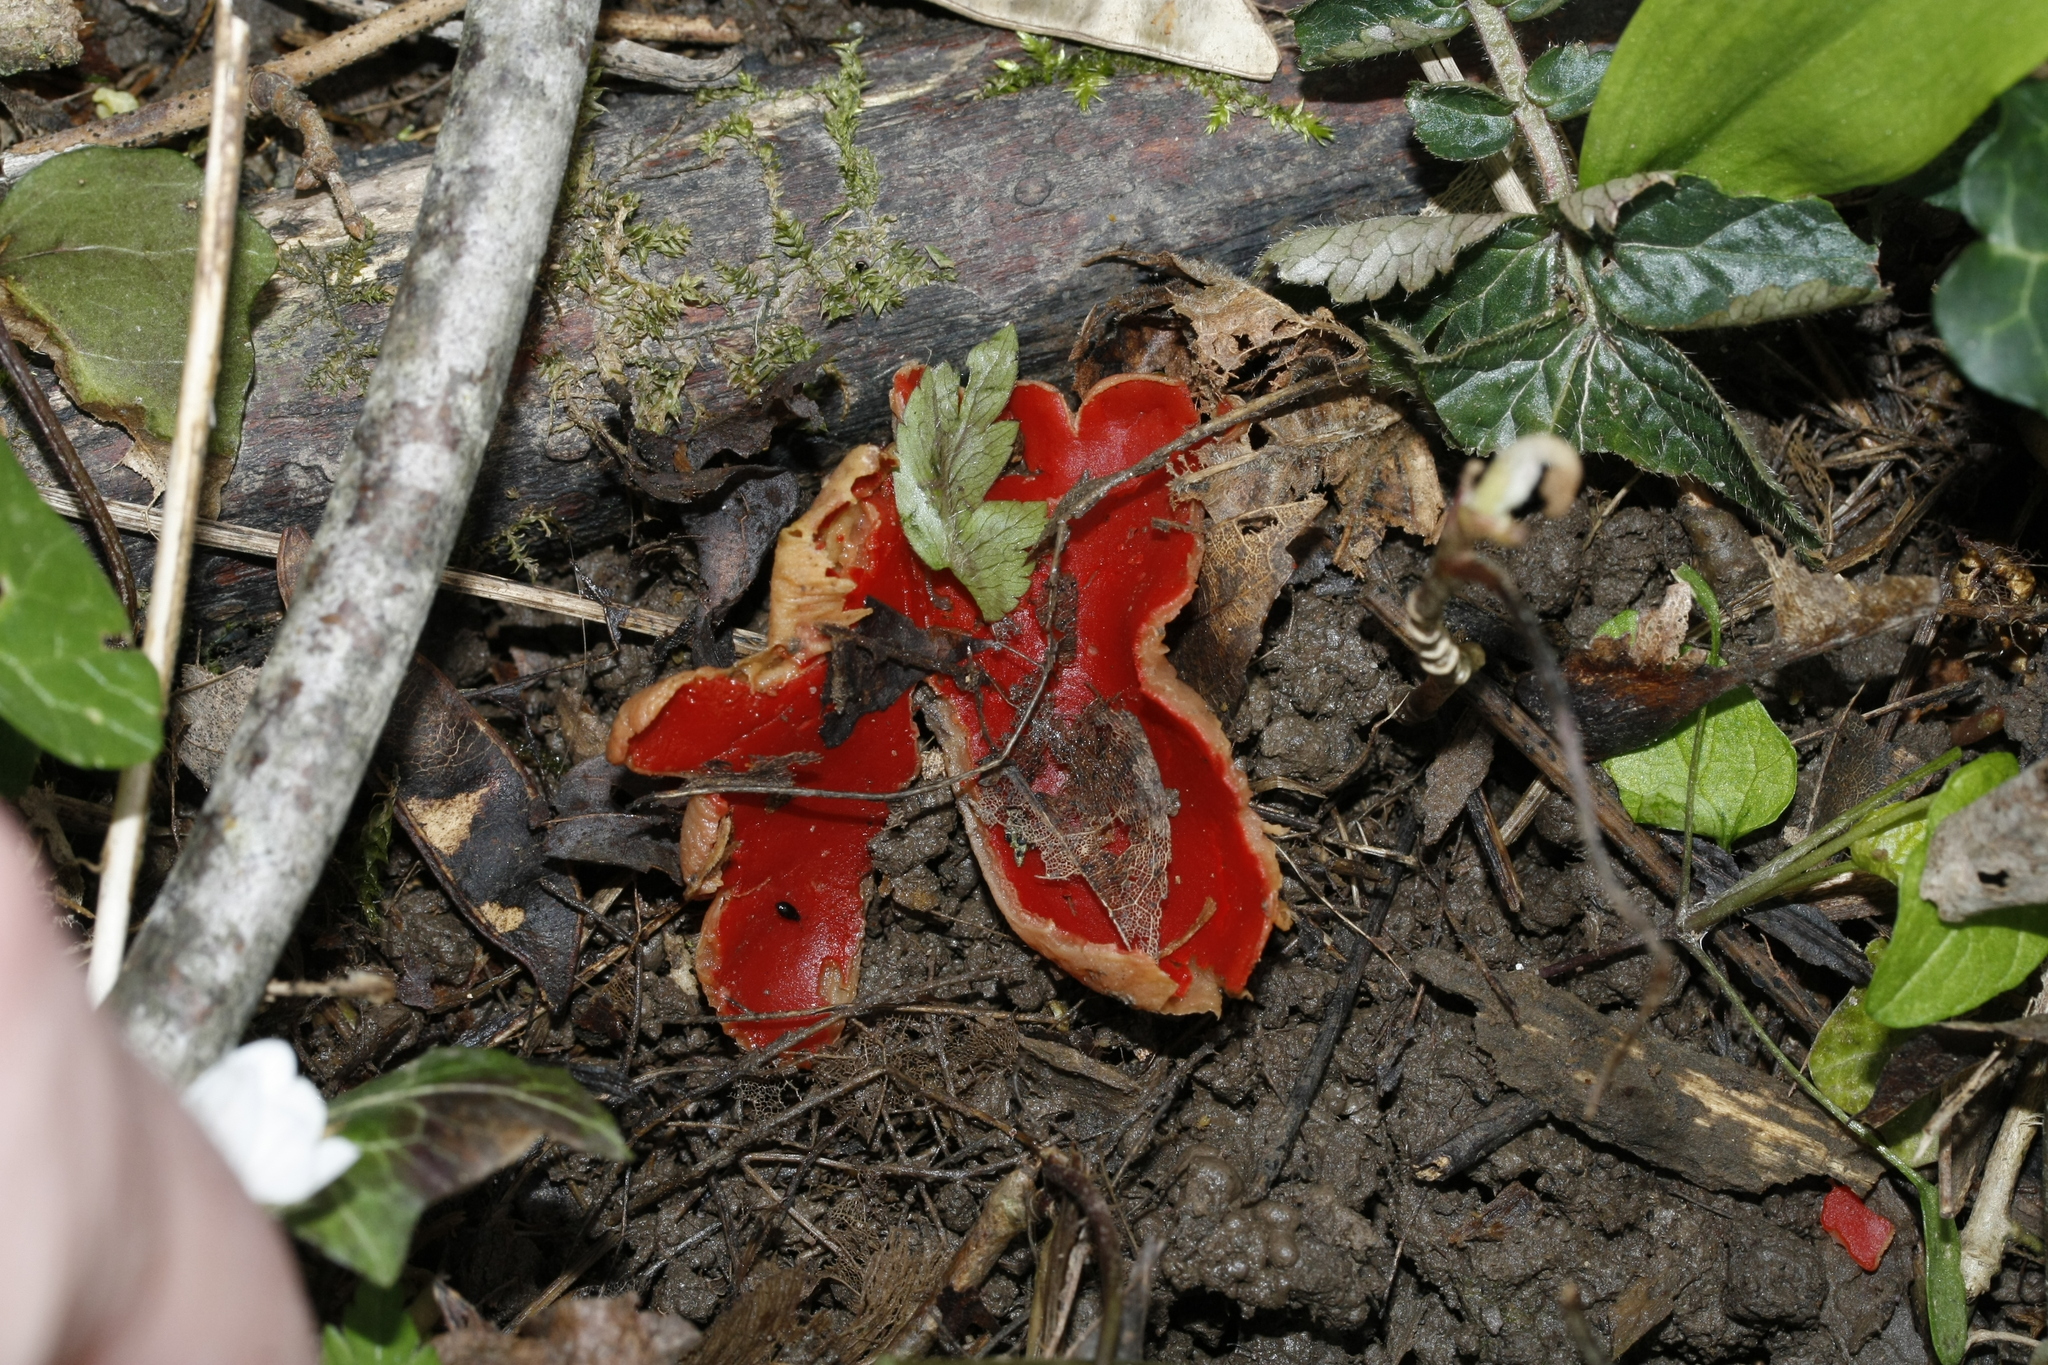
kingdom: Fungi
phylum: Ascomycota
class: Pezizomycetes
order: Pezizales
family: Sarcoscyphaceae
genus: Sarcoscypha
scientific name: Sarcoscypha
